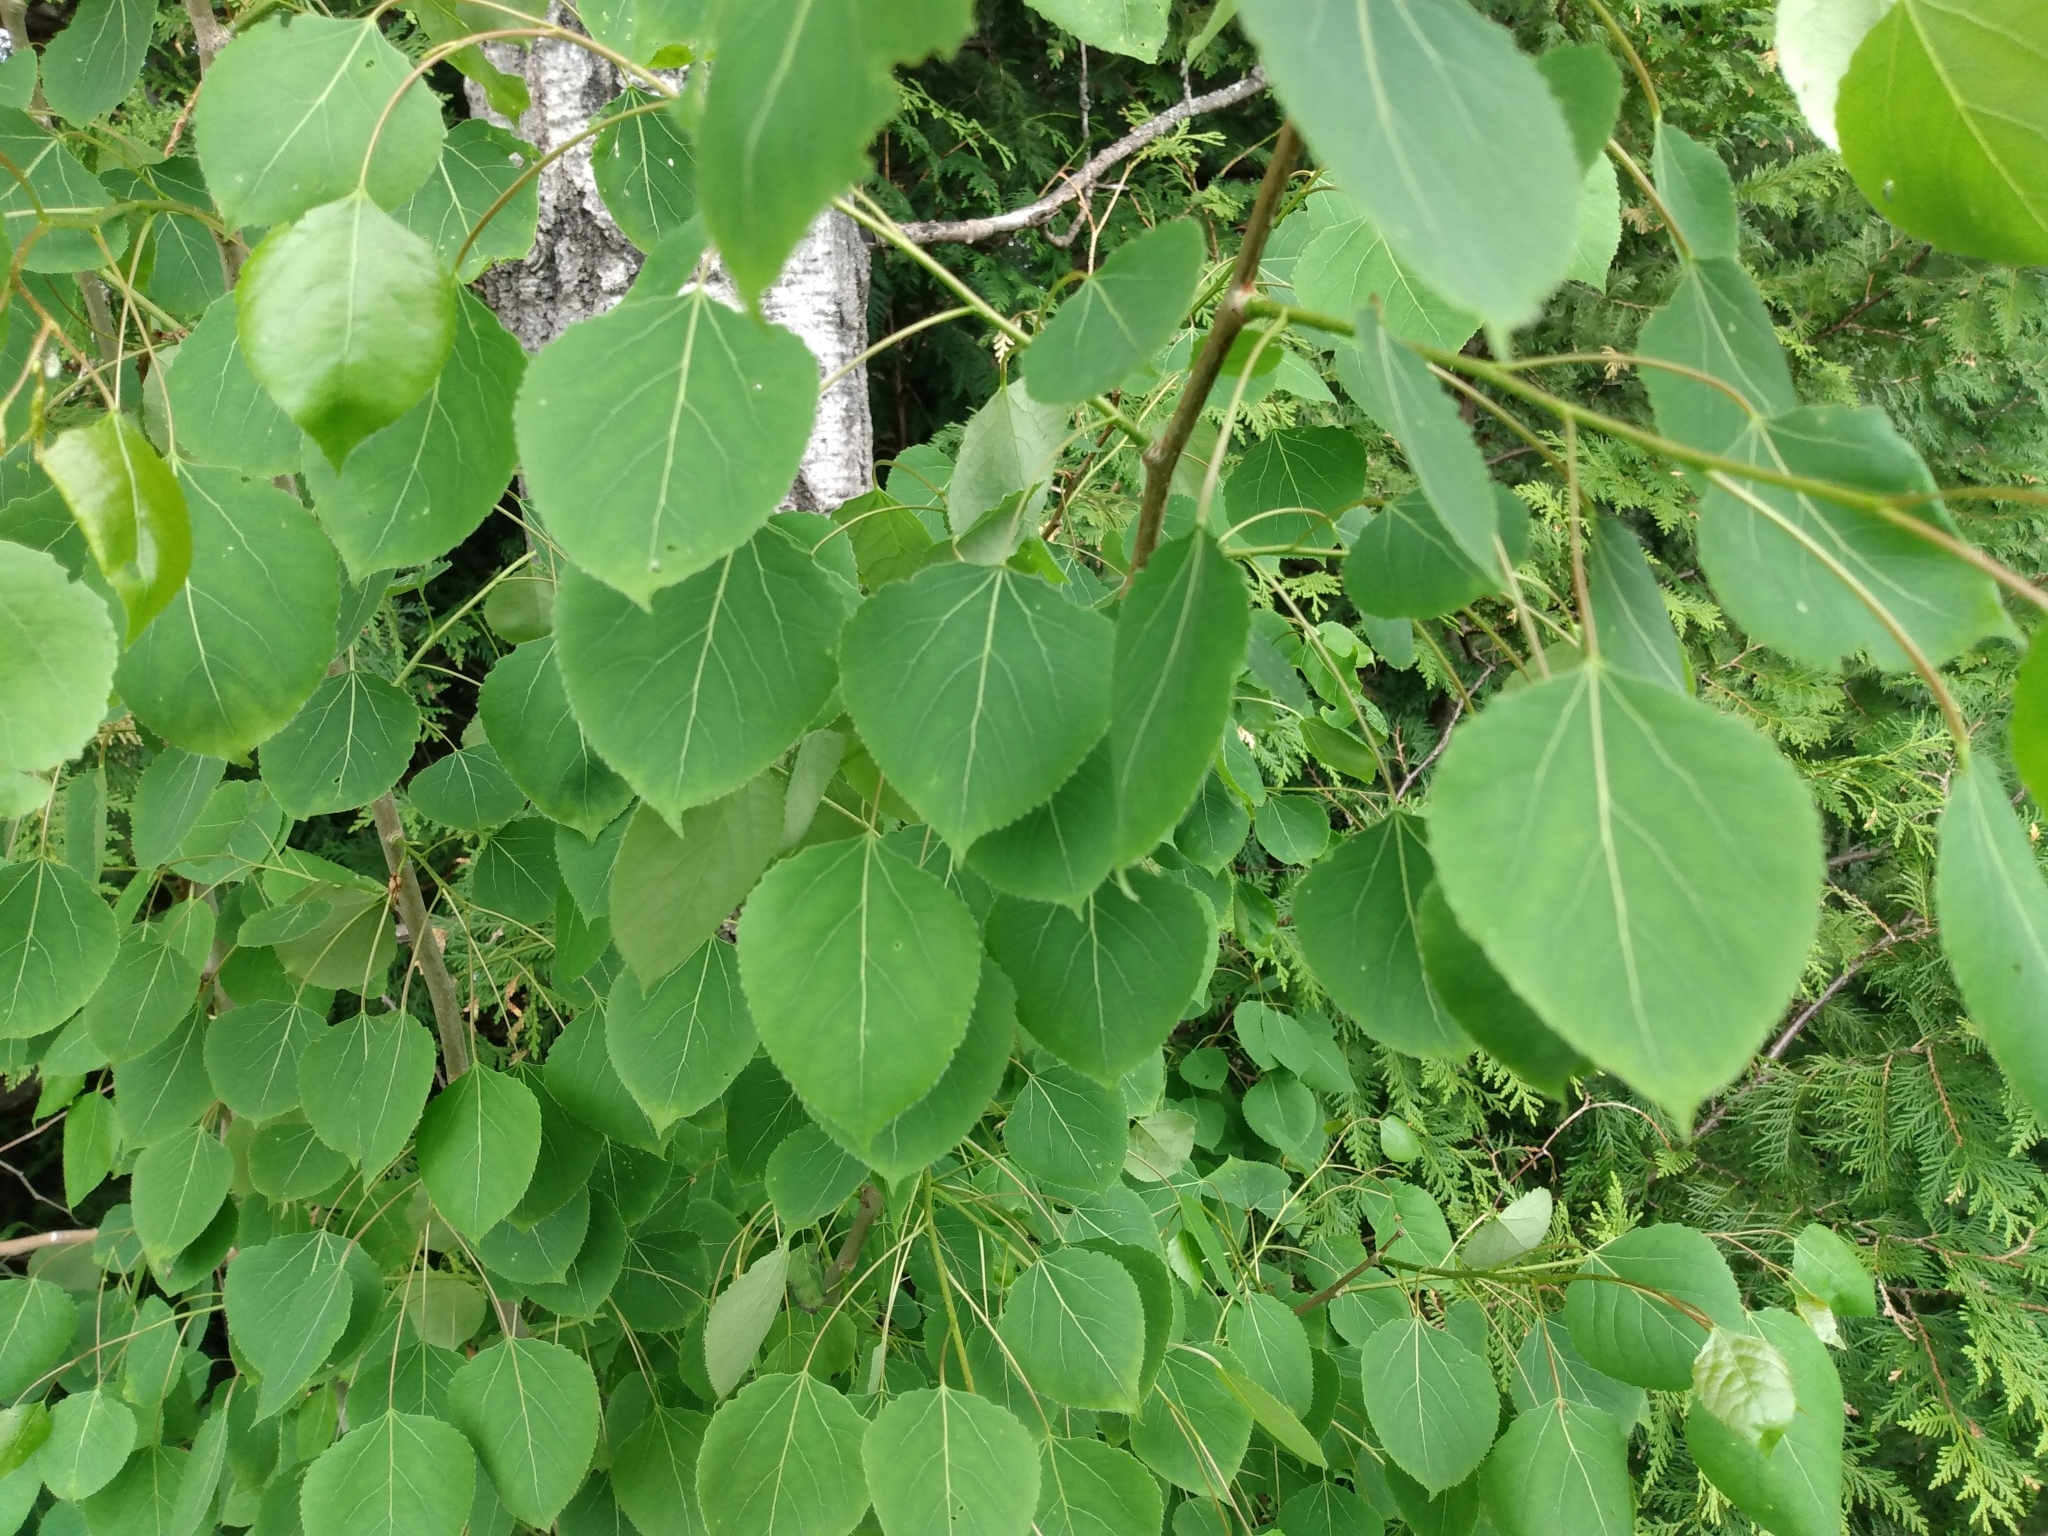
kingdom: Plantae
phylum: Tracheophyta
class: Magnoliopsida
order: Malpighiales
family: Salicaceae
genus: Populus
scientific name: Populus tremuloides
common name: Quaking aspen
